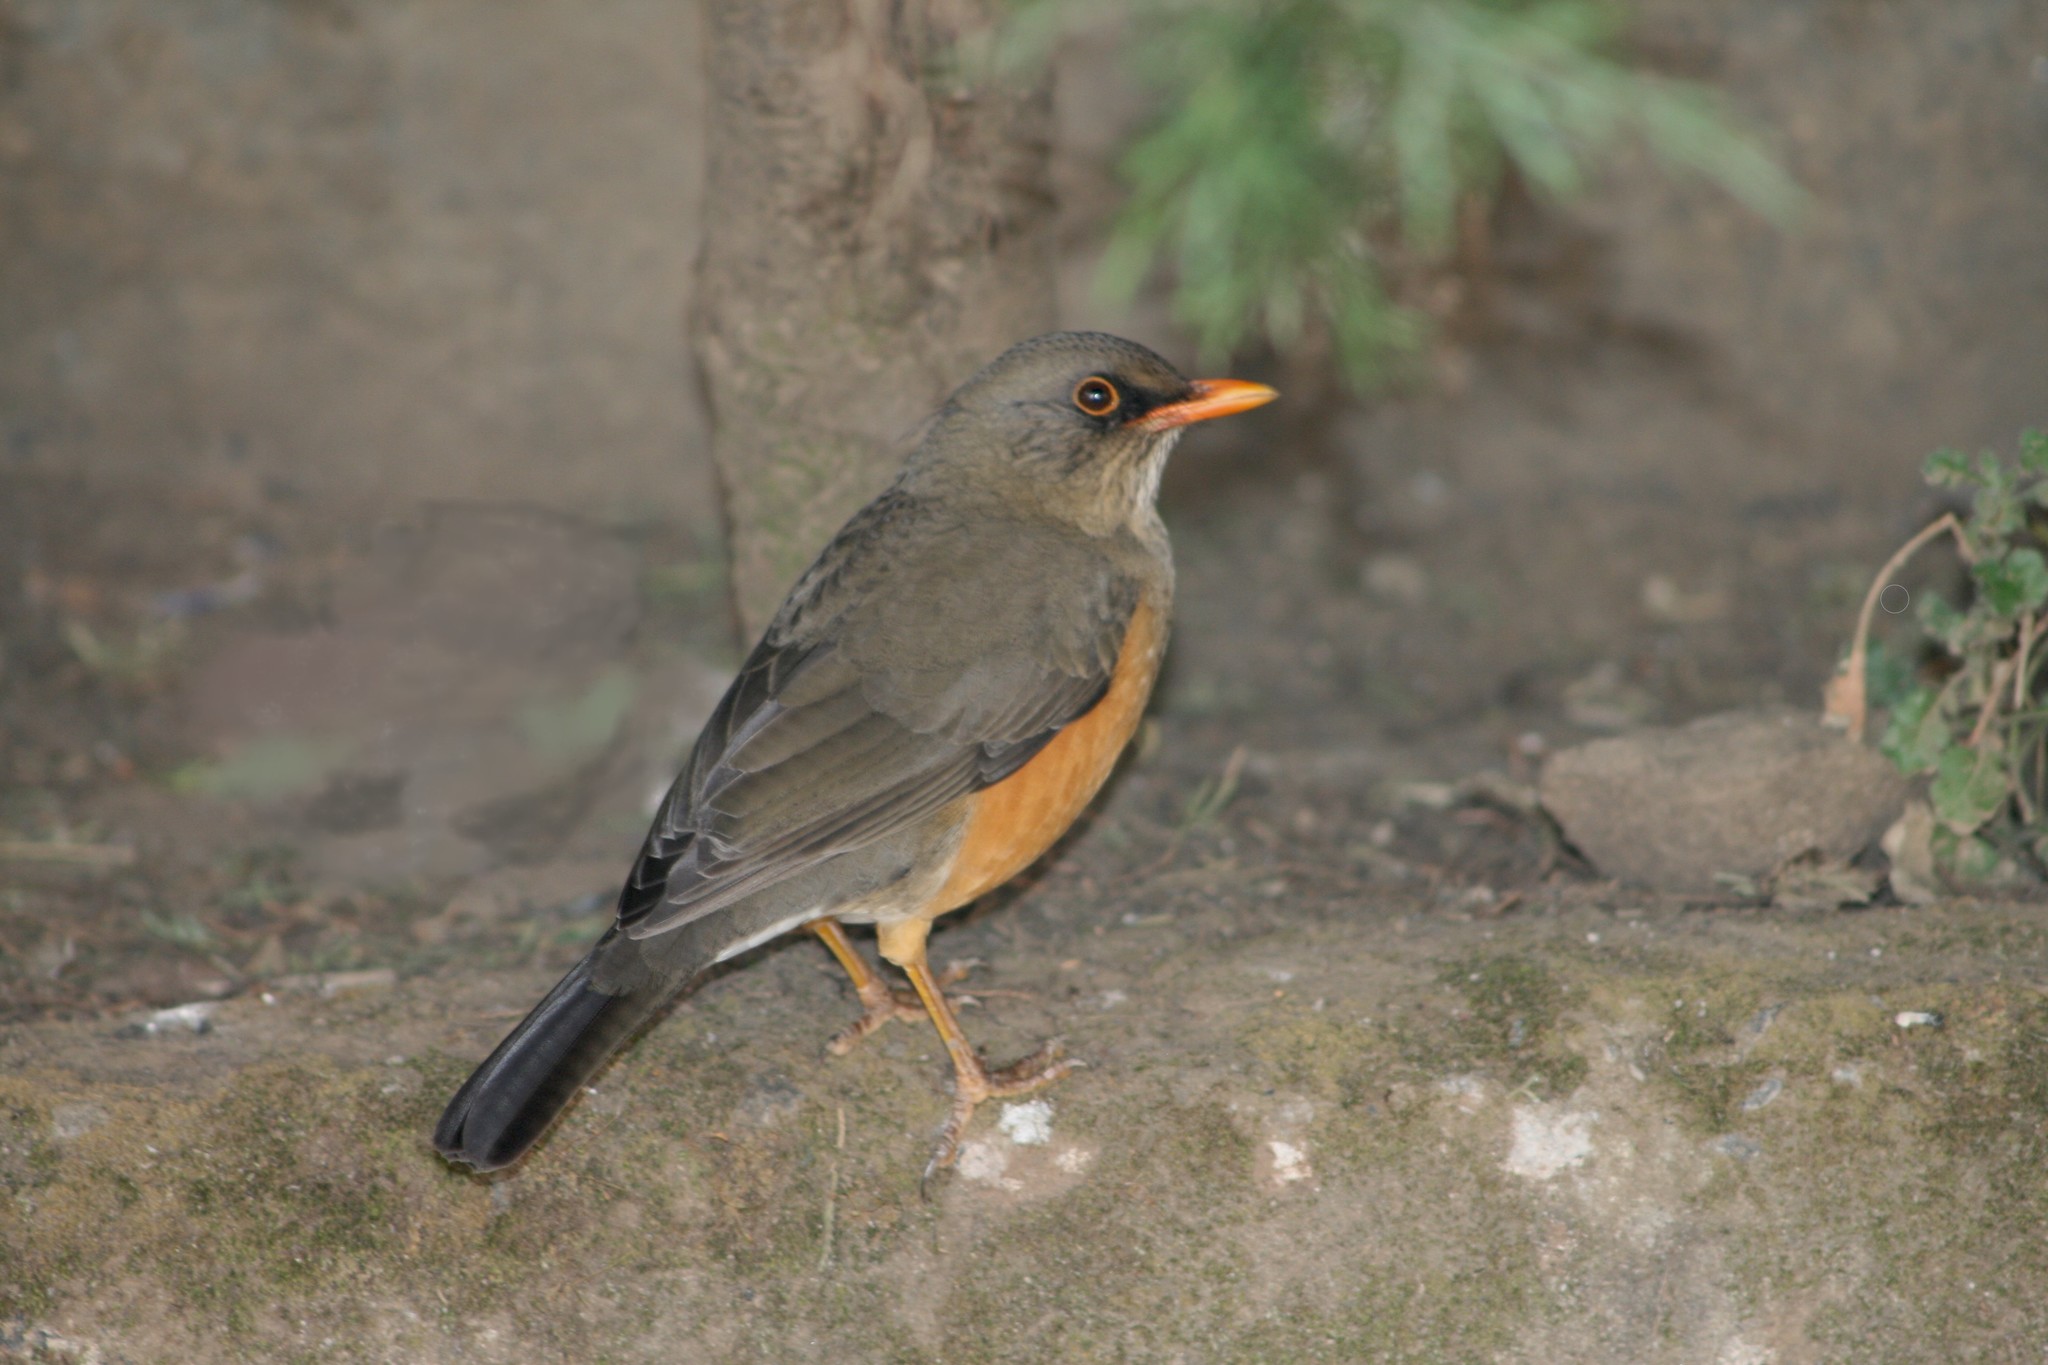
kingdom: Animalia
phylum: Chordata
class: Aves
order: Passeriformes
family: Turdidae
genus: Turdus
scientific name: Turdus abyssinicus
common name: Abyssinian thrush
